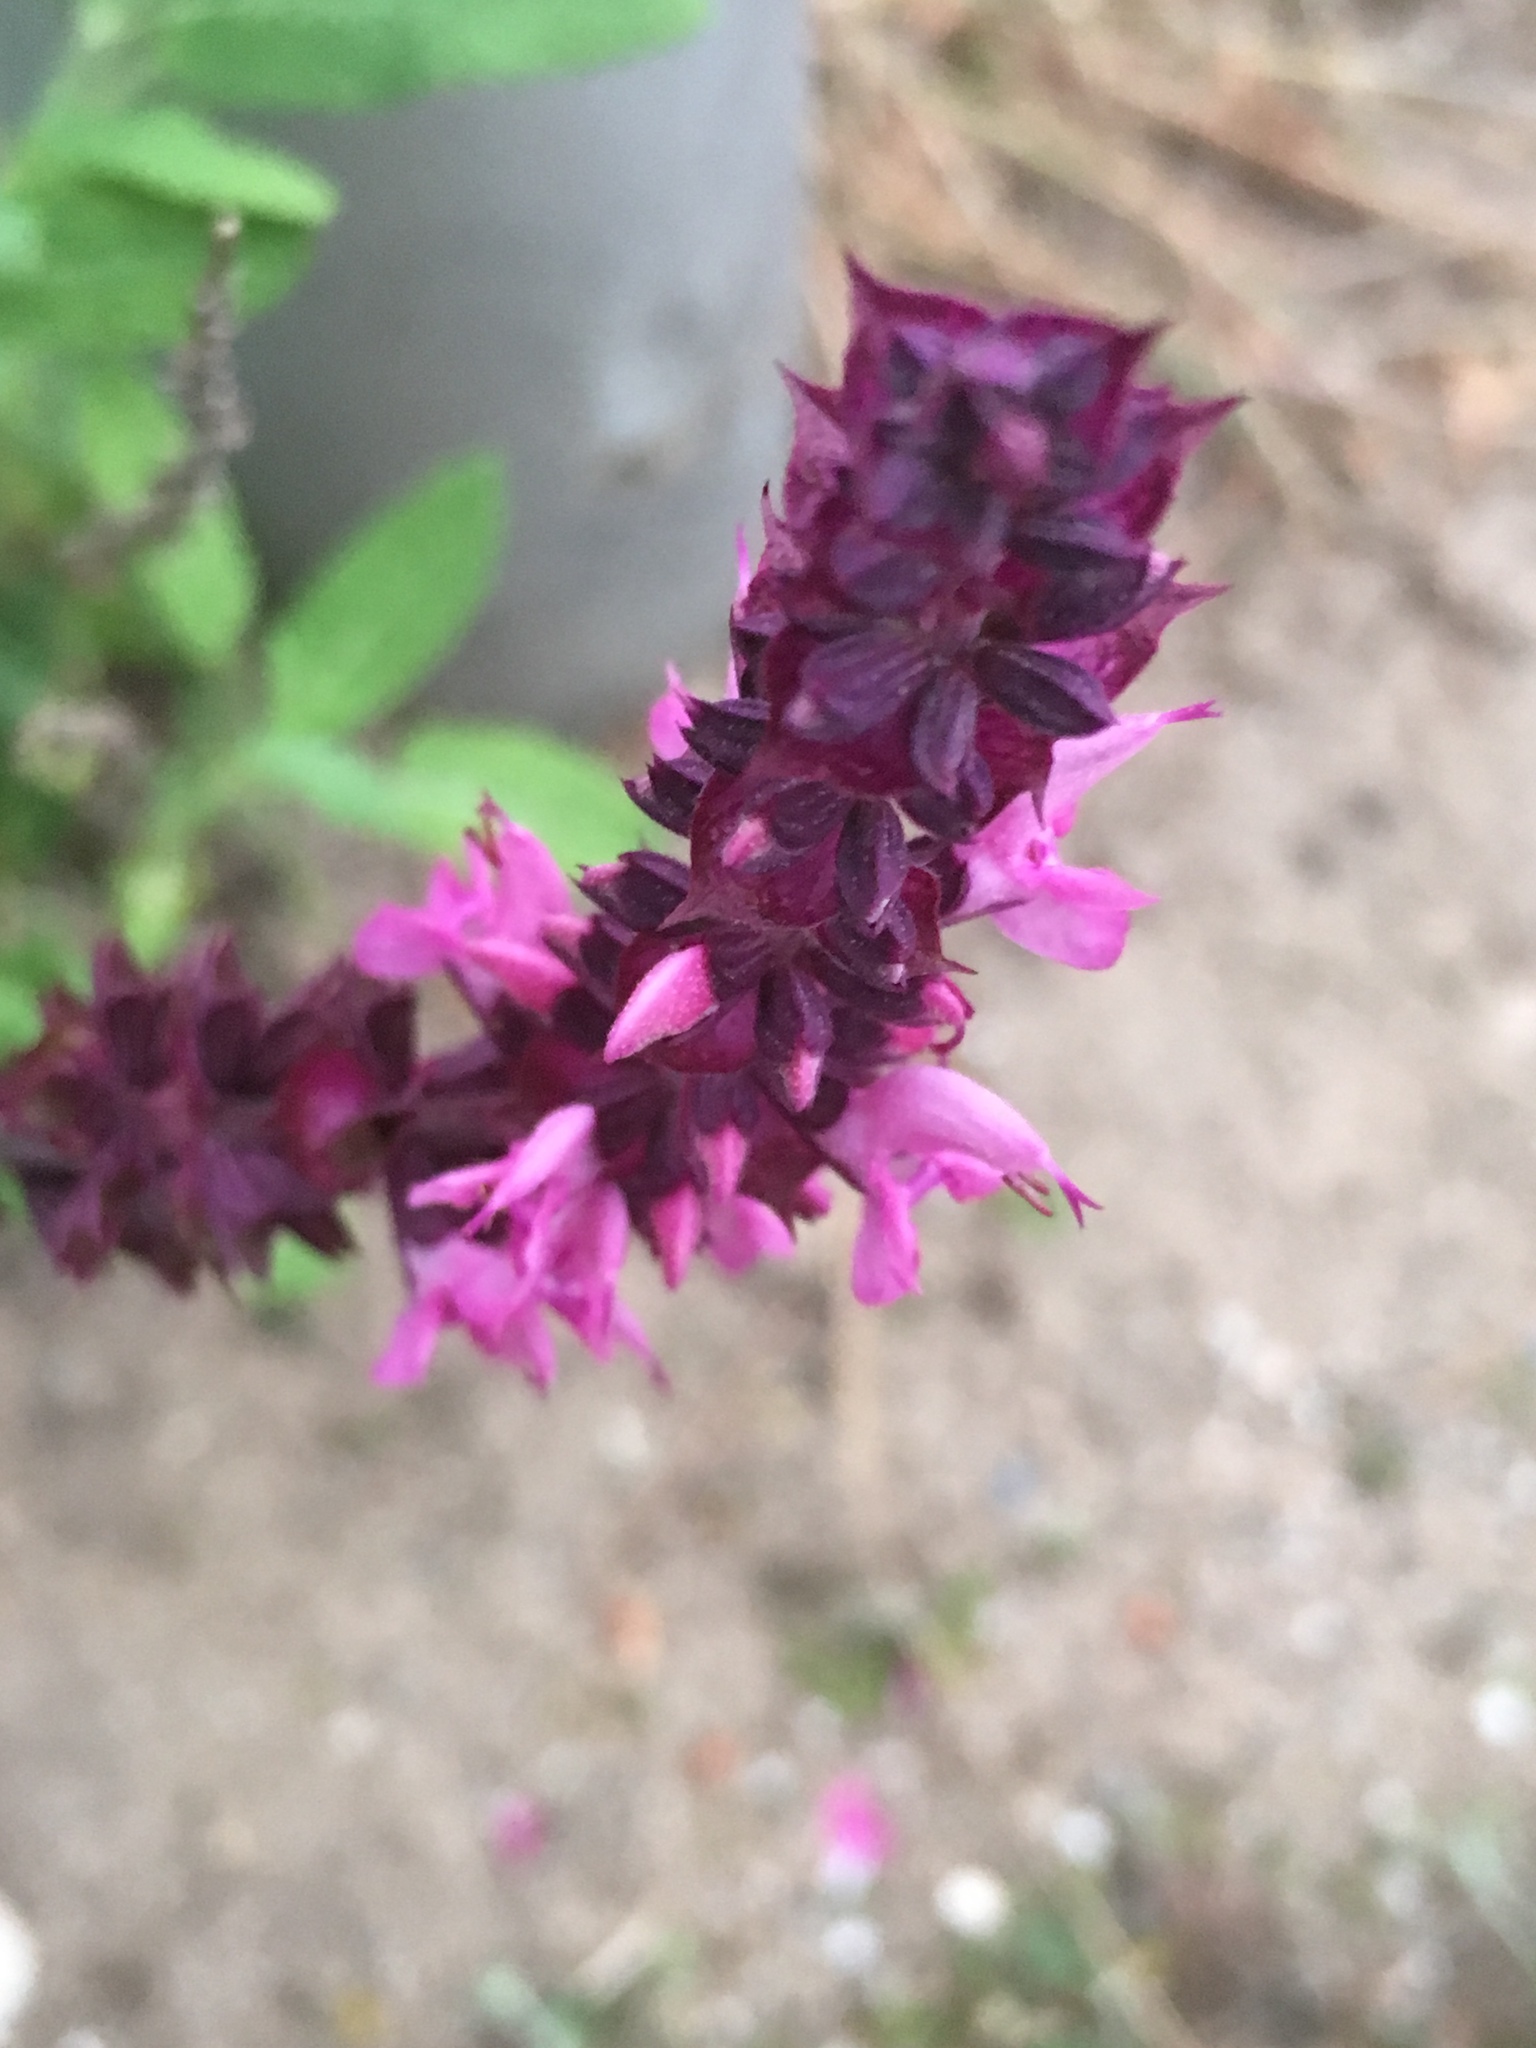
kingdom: Plantae
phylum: Tracheophyta
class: Magnoliopsida
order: Lamiales
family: Lamiaceae
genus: Salvia
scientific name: Salvia nemorosa
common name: Balkan clary
